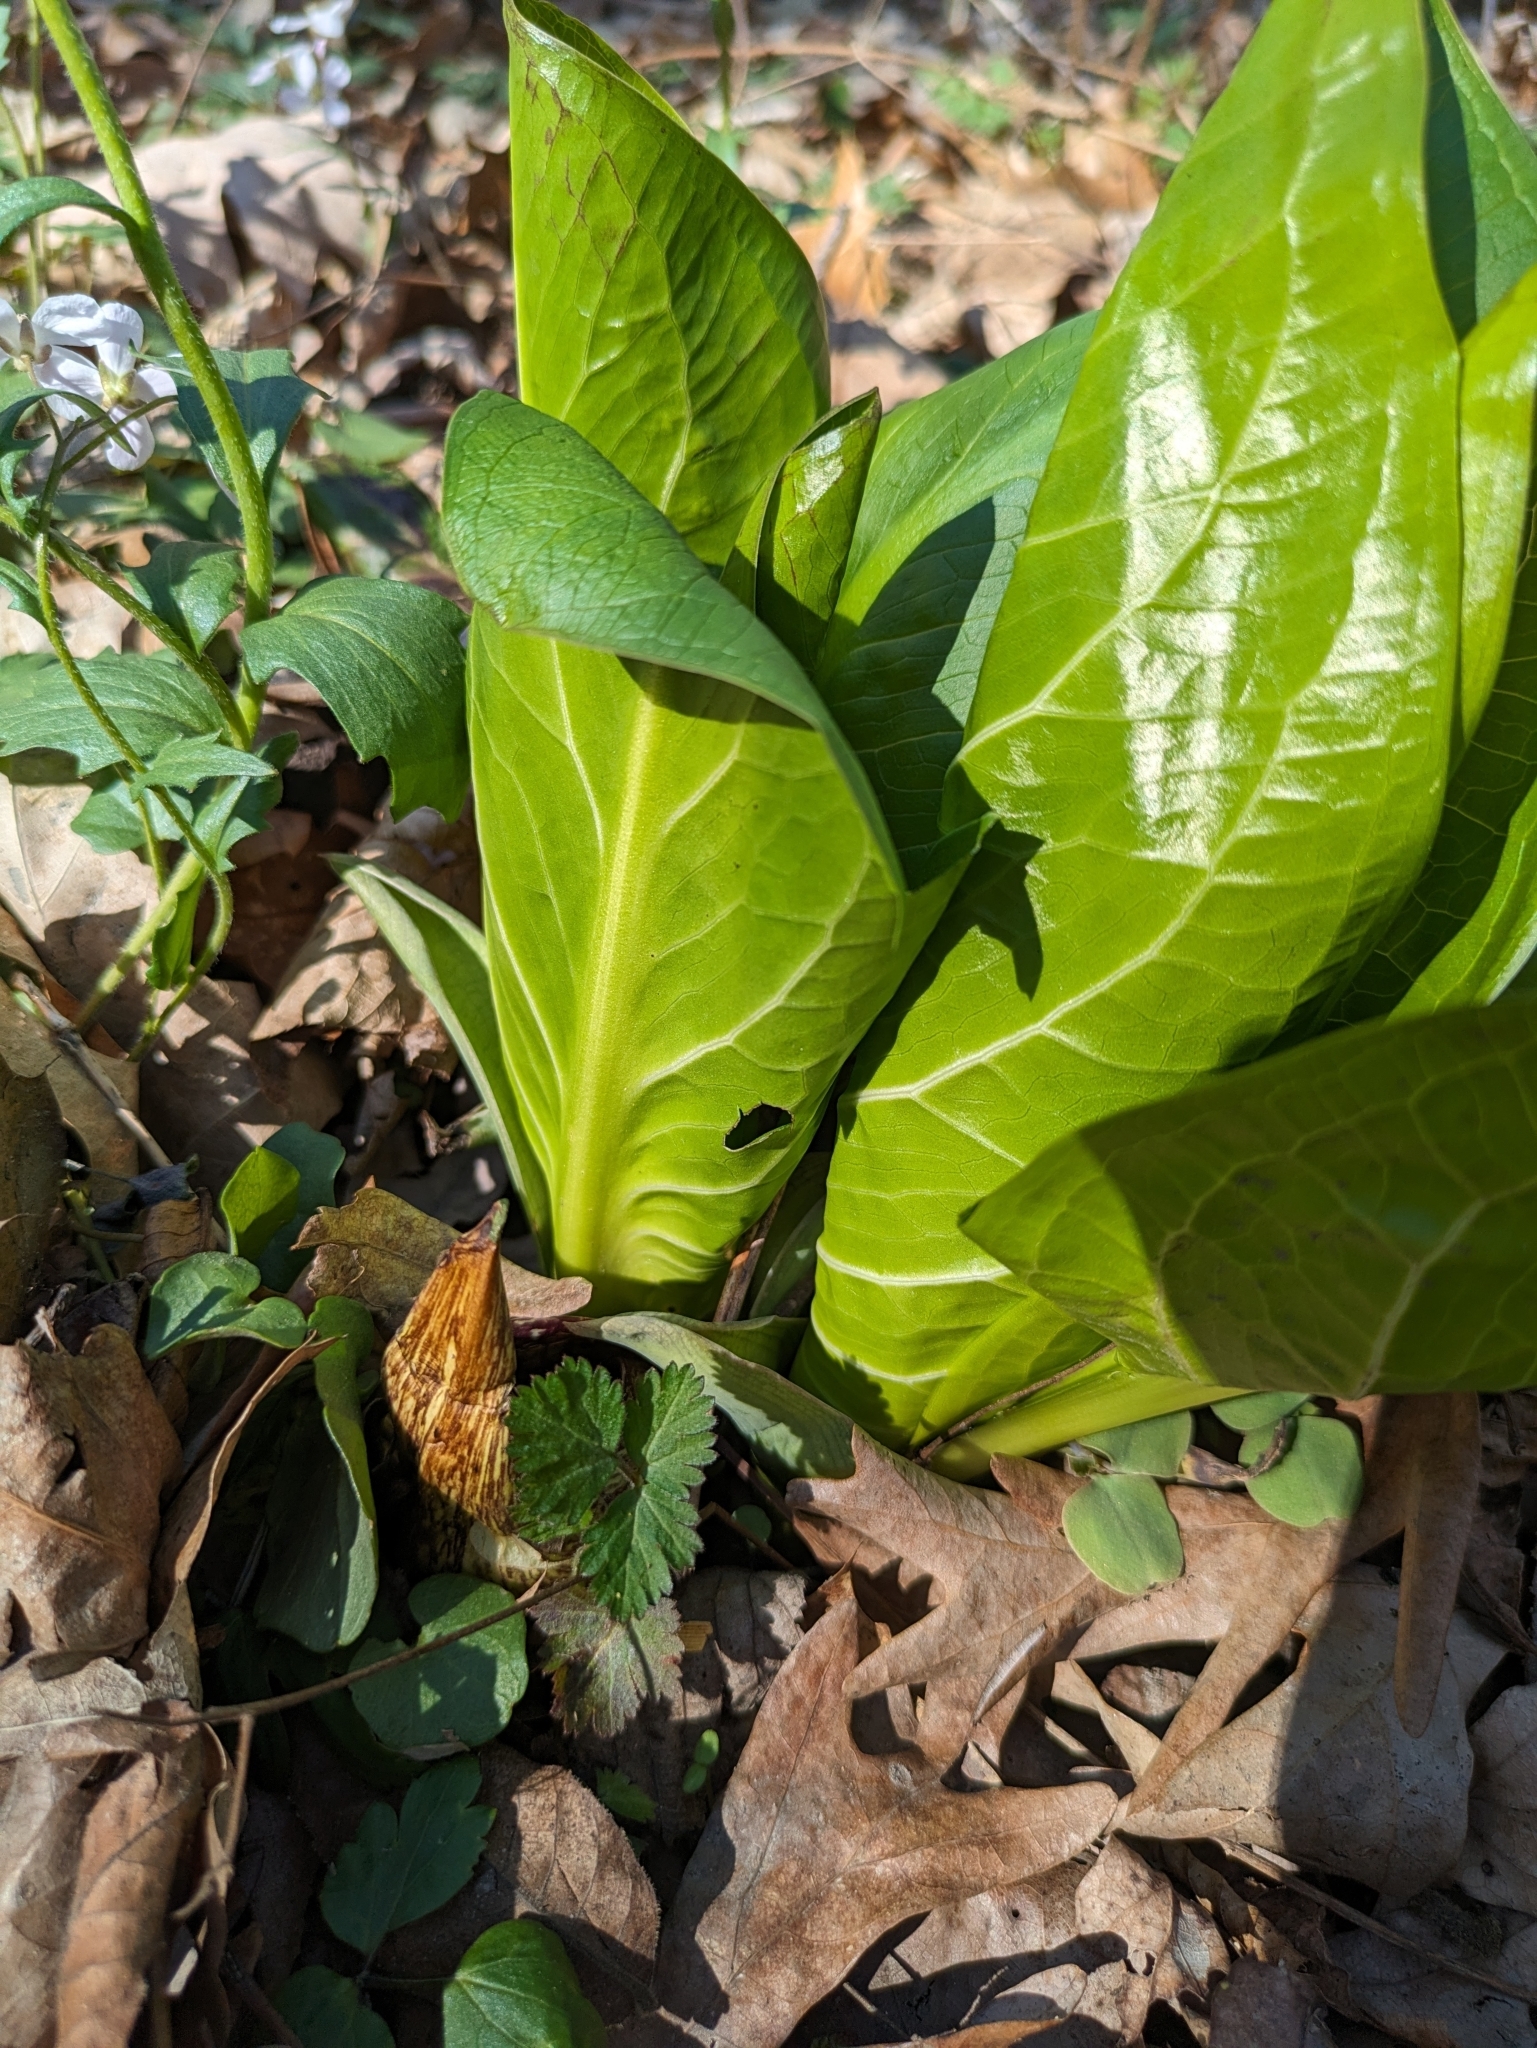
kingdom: Plantae
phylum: Tracheophyta
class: Liliopsida
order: Alismatales
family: Araceae
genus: Symplocarpus
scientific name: Symplocarpus foetidus
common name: Eastern skunk cabbage
